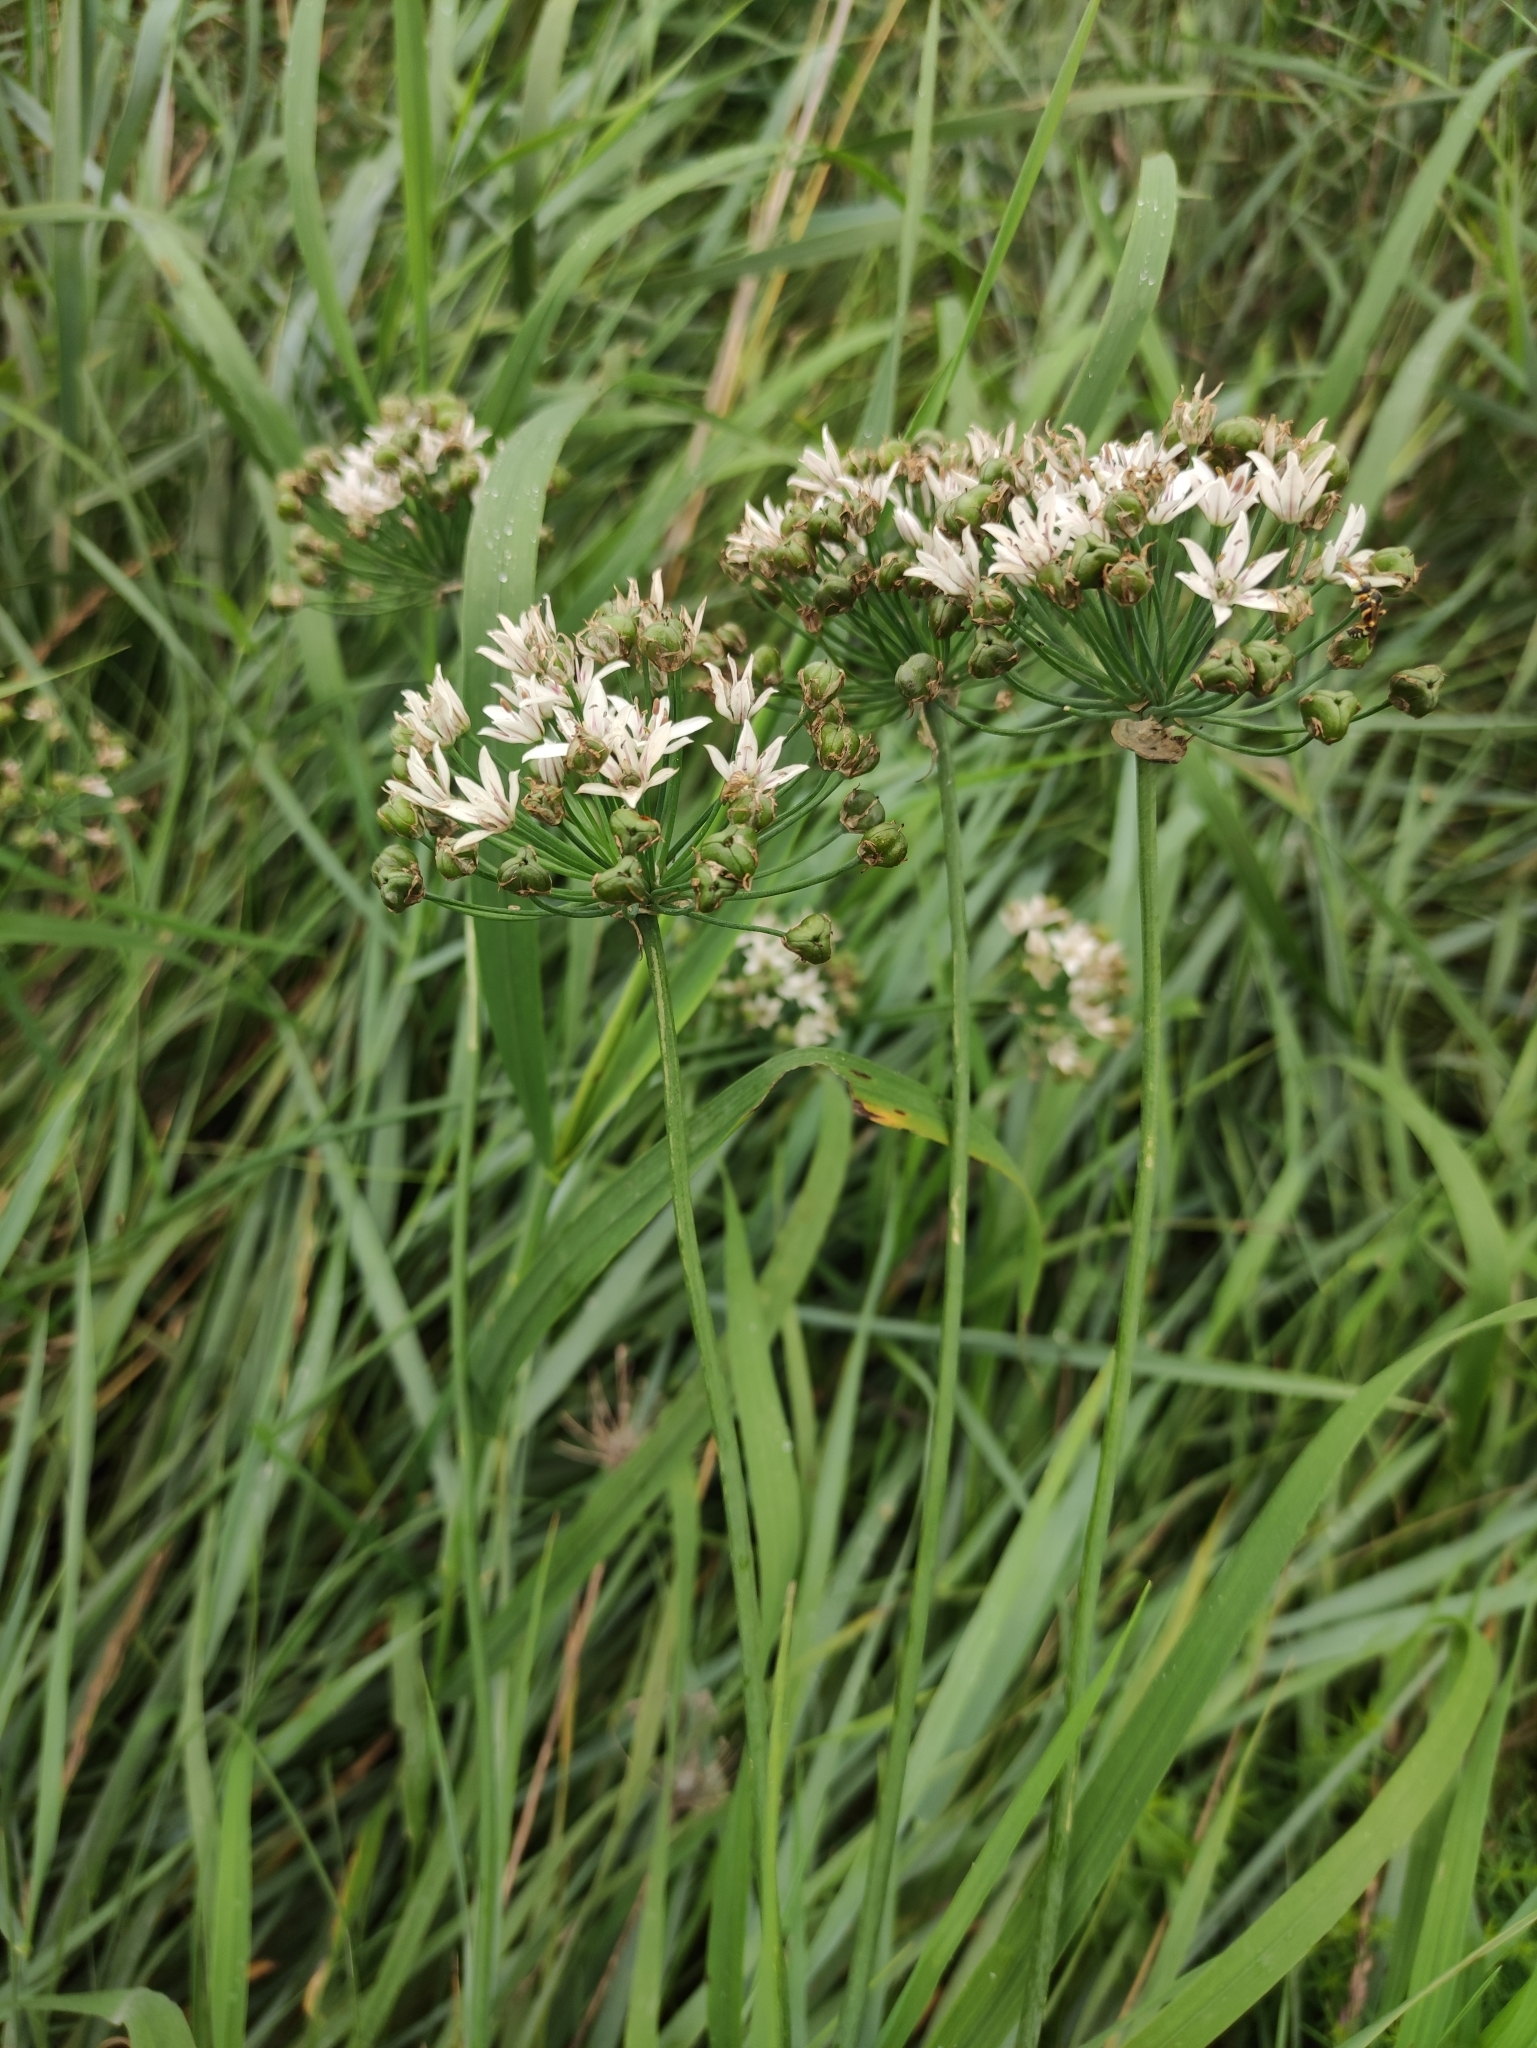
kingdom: Plantae
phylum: Tracheophyta
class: Liliopsida
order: Asparagales
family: Amaryllidaceae
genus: Allium
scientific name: Allium ramosum
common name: Fragrant garlic
